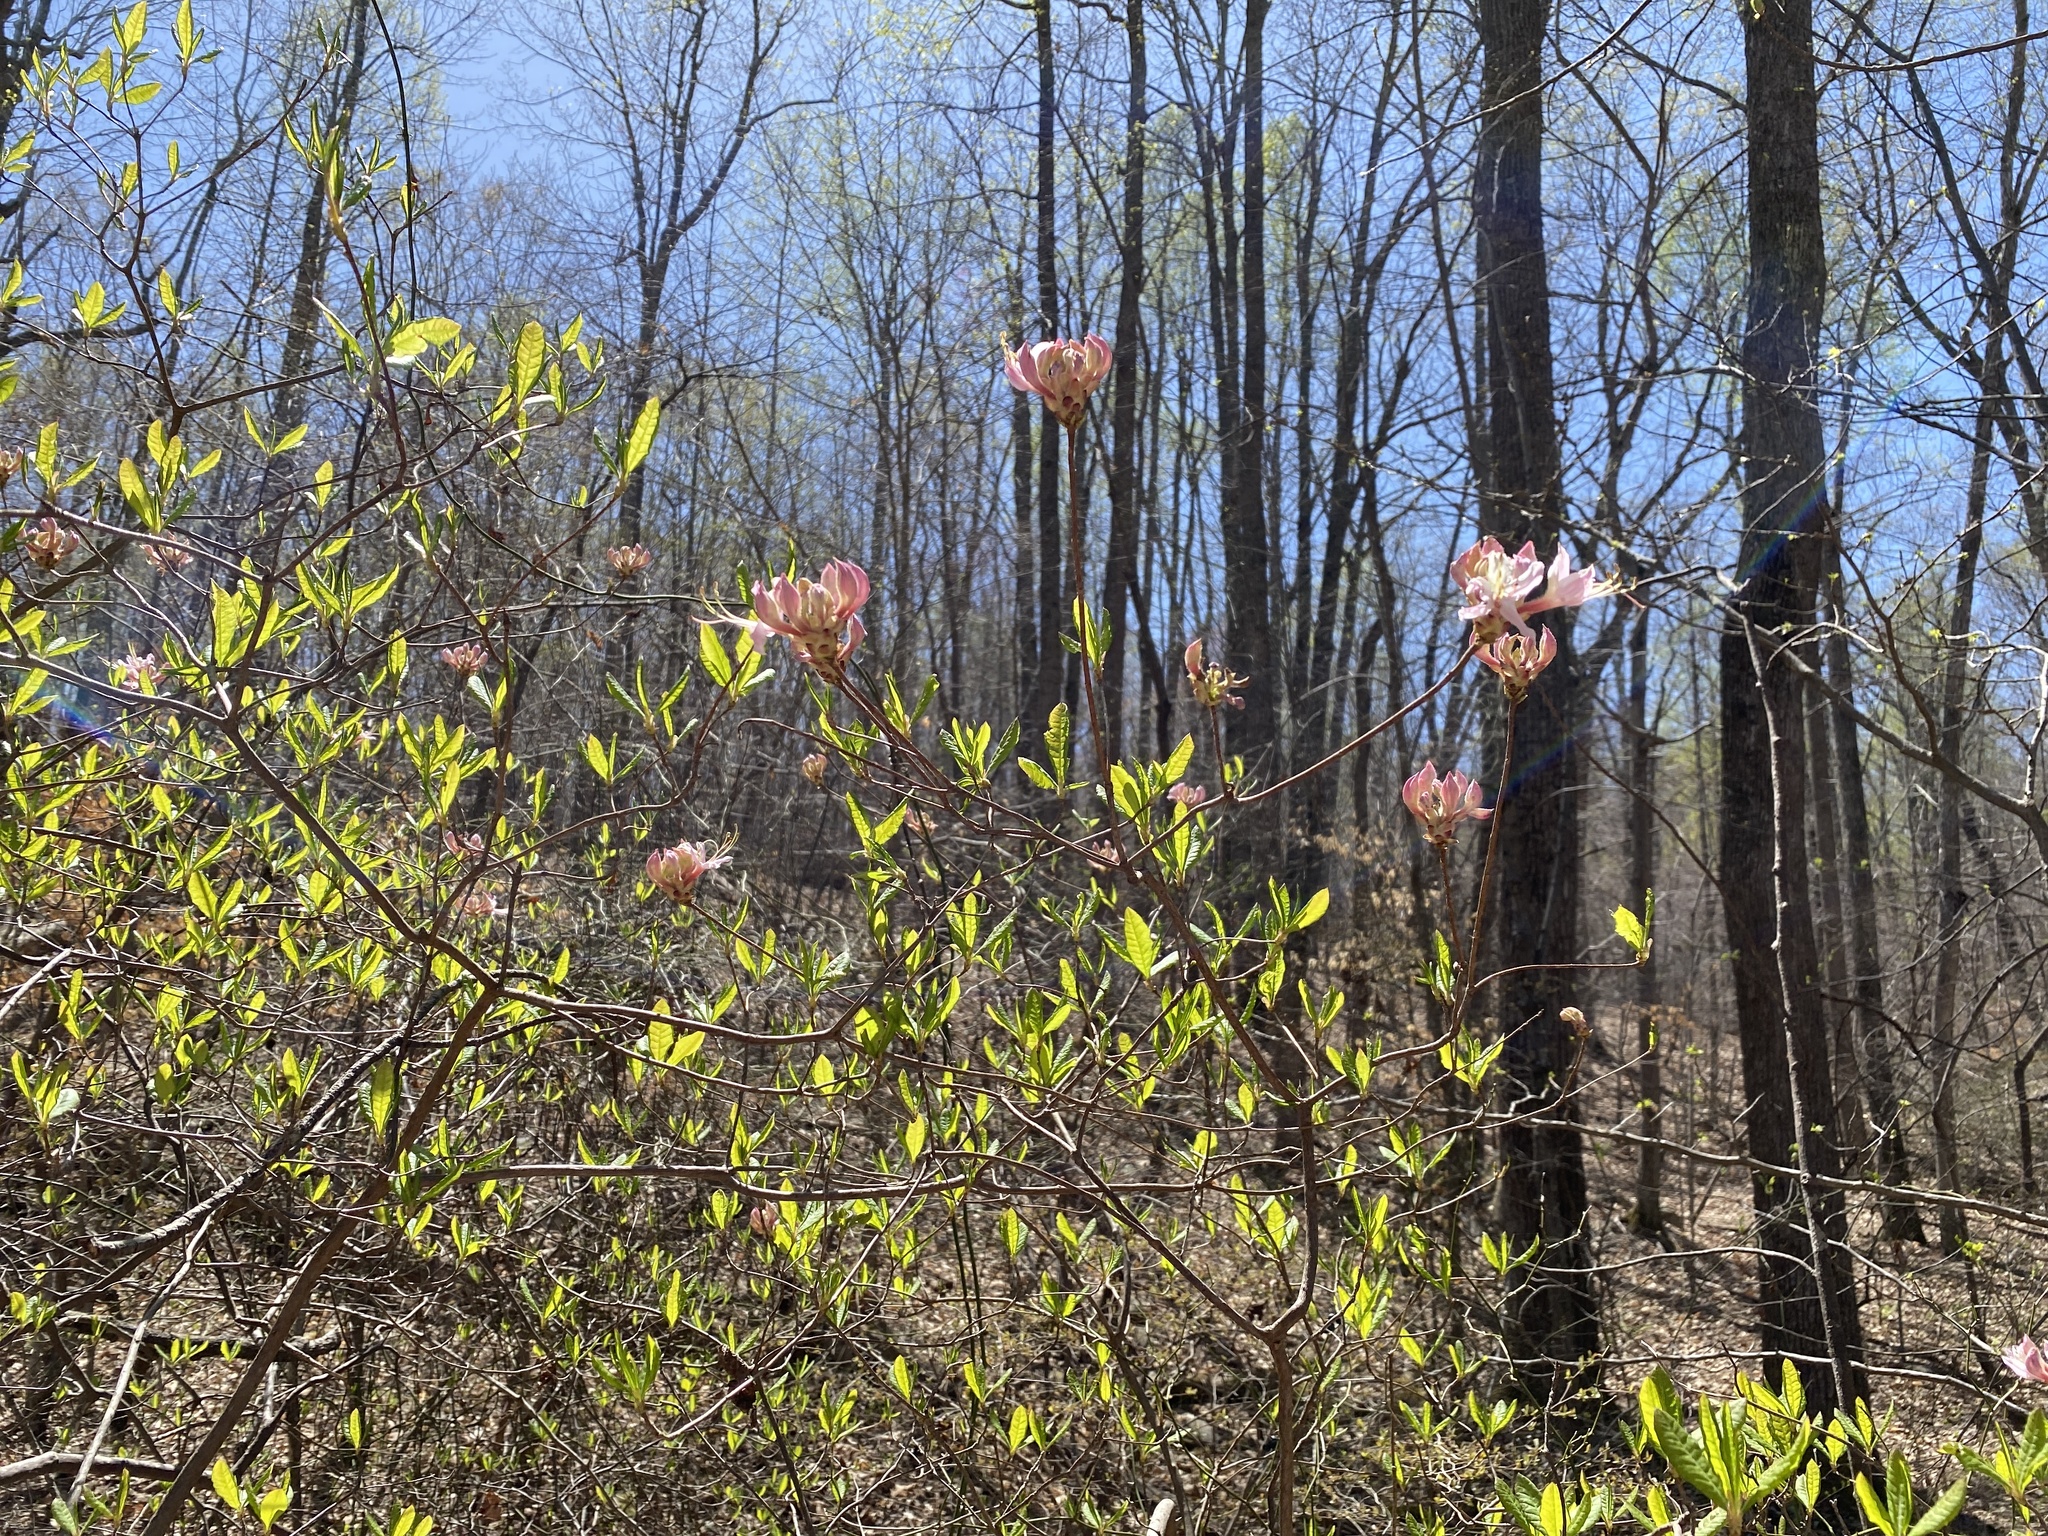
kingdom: Plantae
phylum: Tracheophyta
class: Magnoliopsida
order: Ericales
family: Ericaceae
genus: Rhododendron
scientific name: Rhododendron periclymenoides
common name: Election-pink
